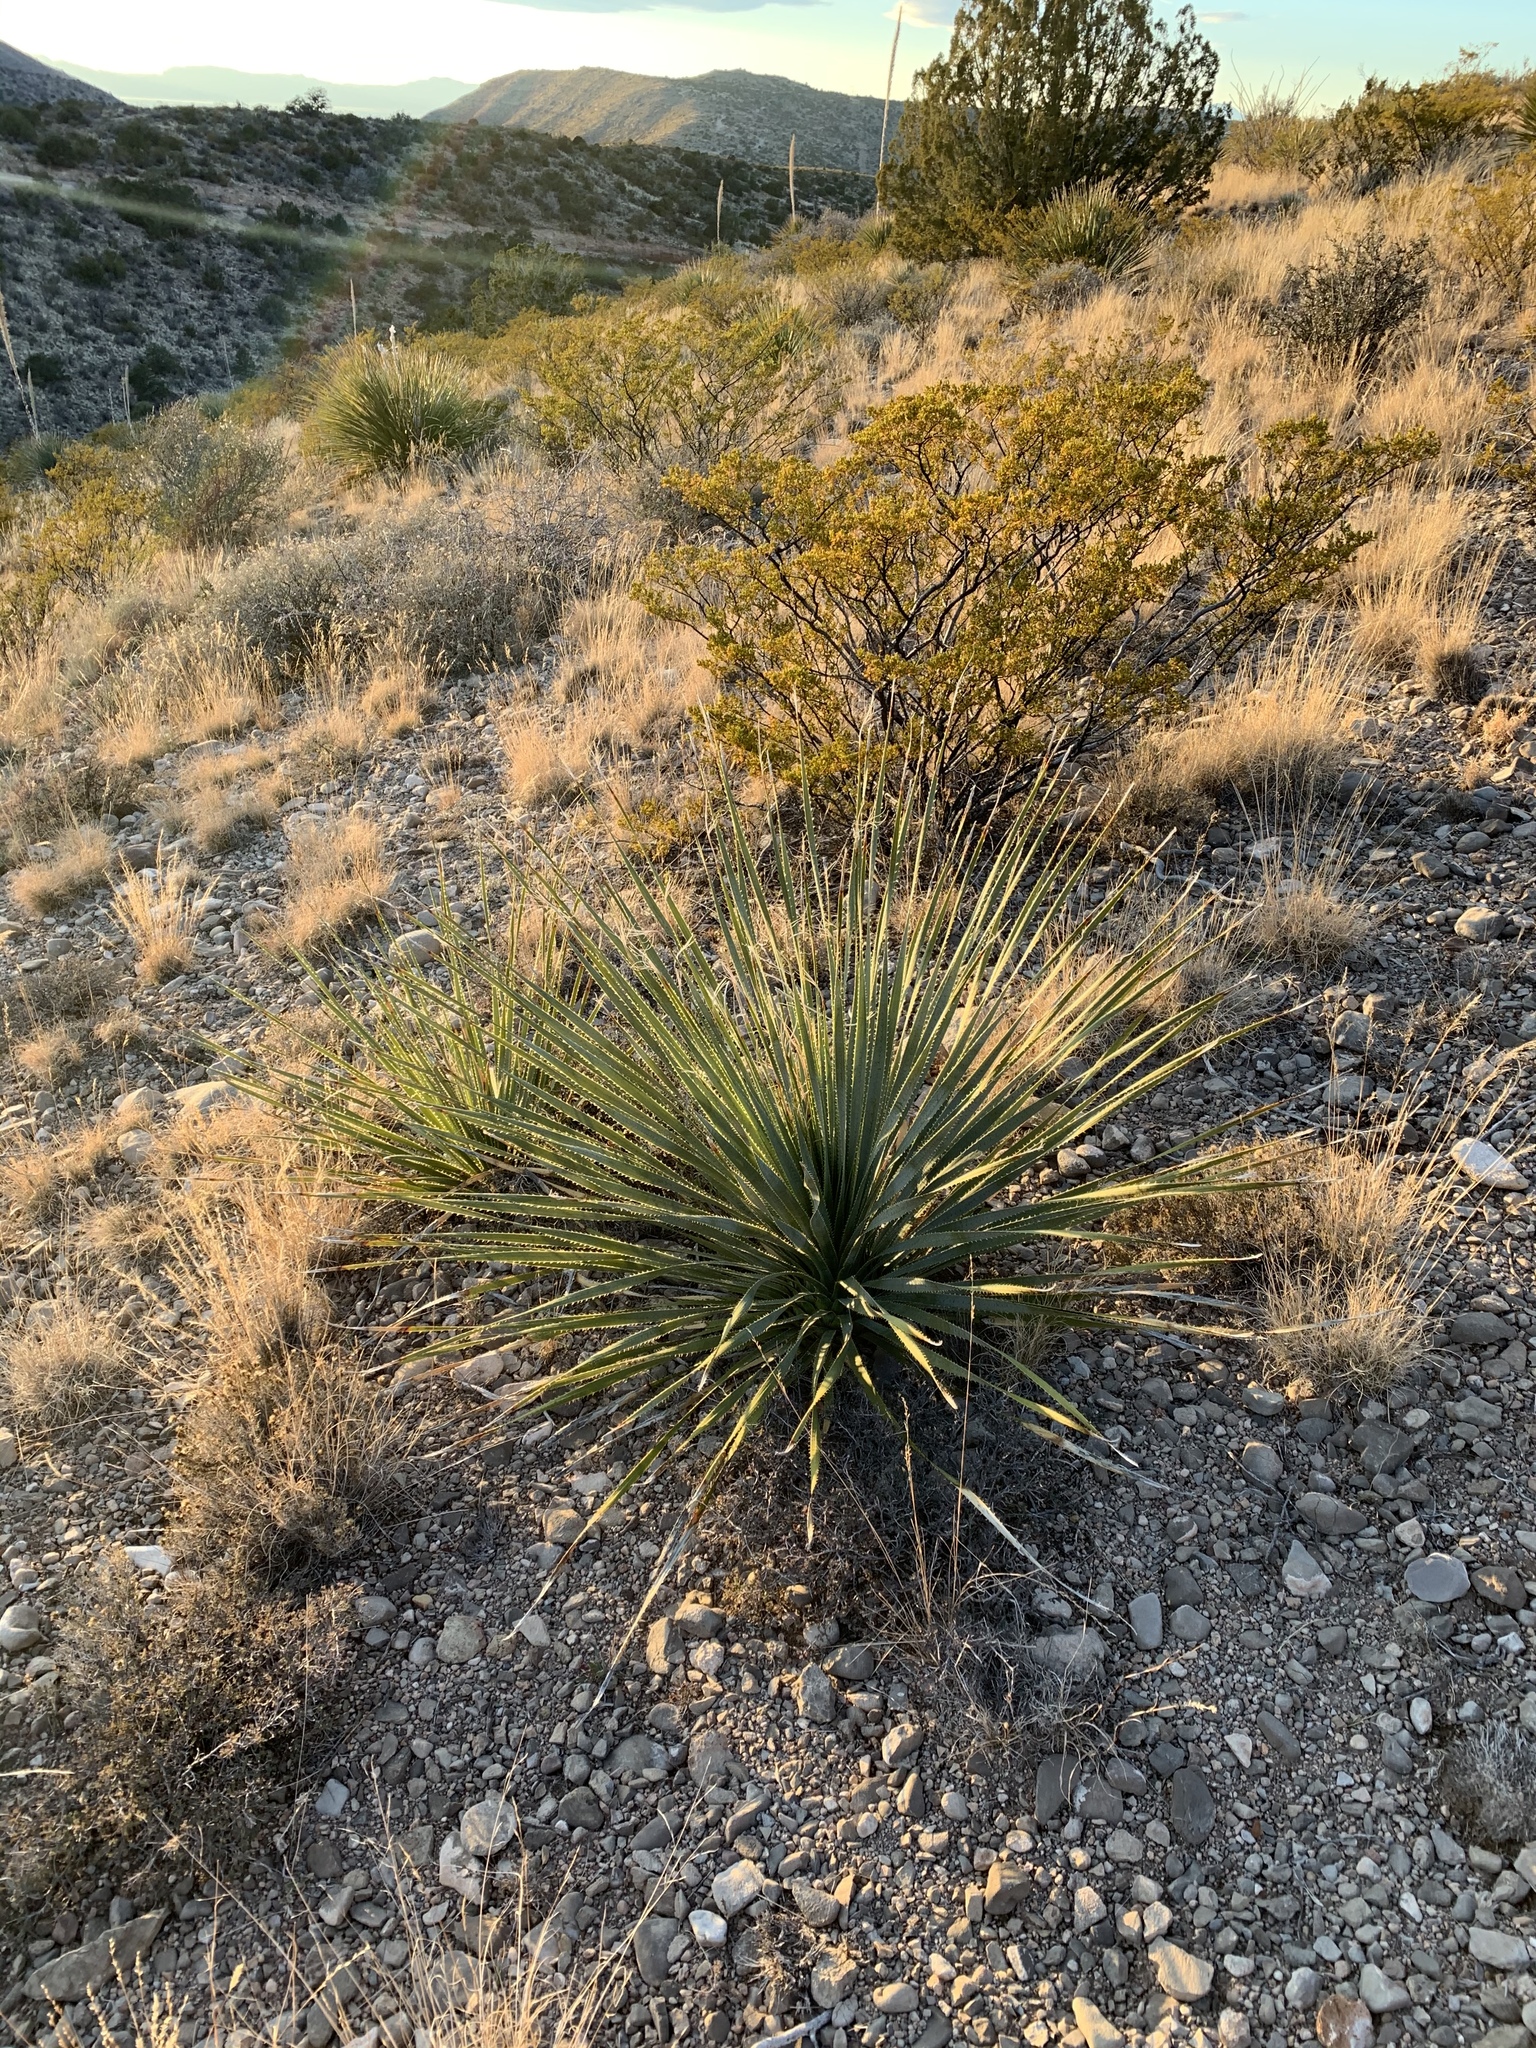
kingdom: Plantae
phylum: Tracheophyta
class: Liliopsida
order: Asparagales
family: Asparagaceae
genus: Dasylirion
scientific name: Dasylirion wheeleri
